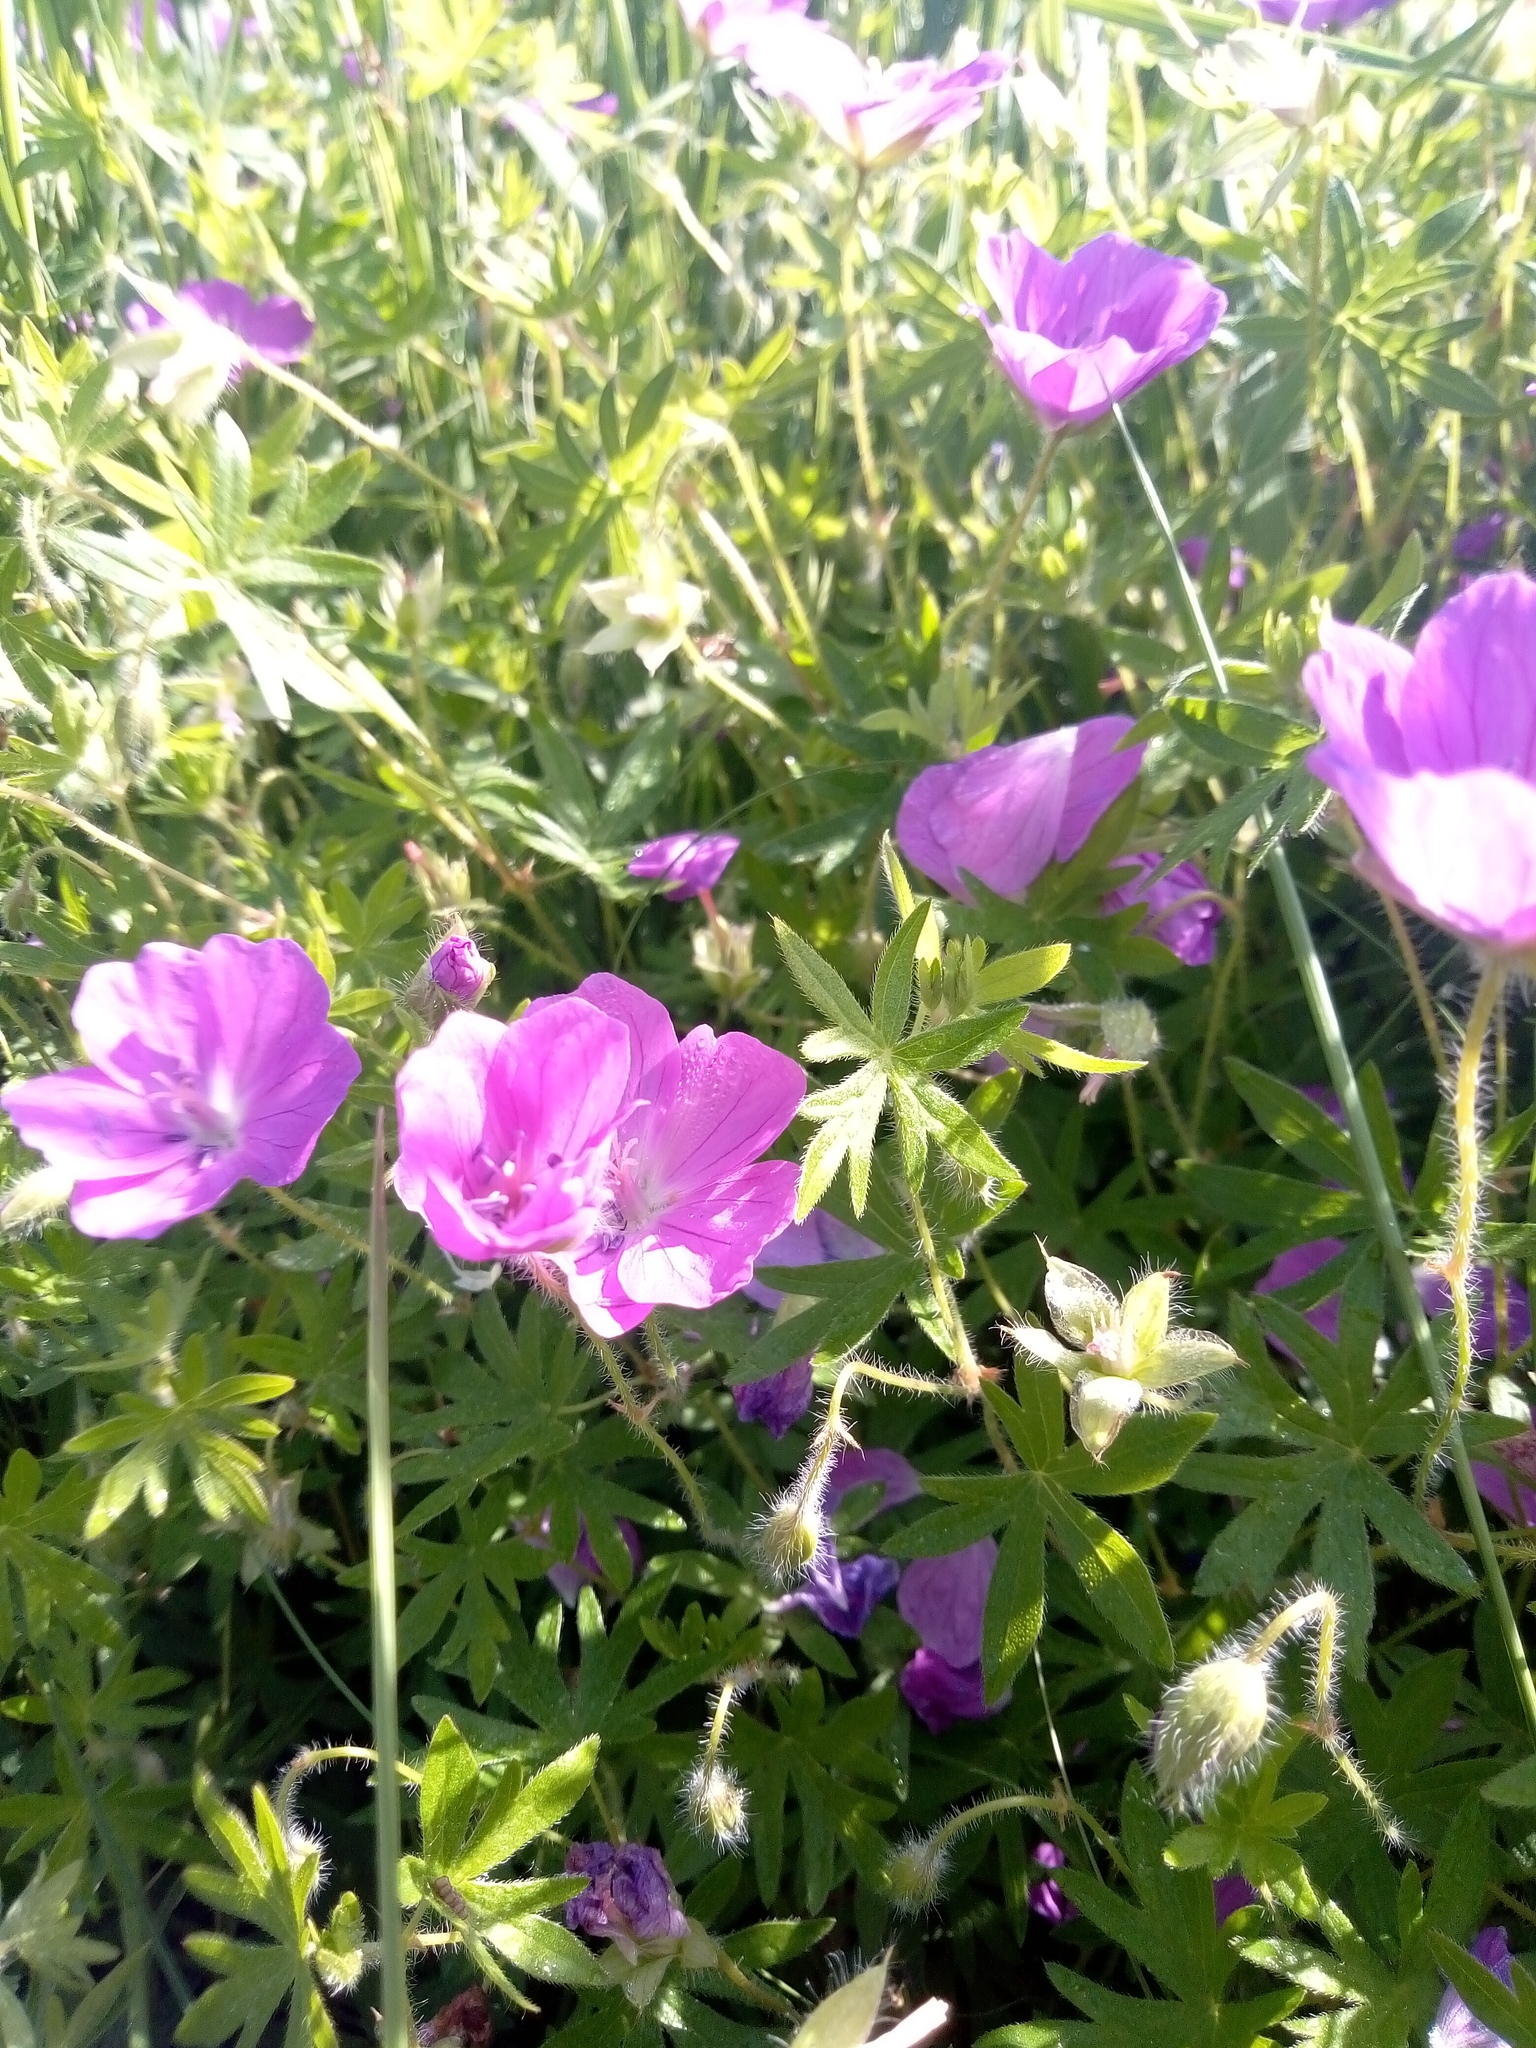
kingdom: Plantae
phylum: Tracheophyta
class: Magnoliopsida
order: Geraniales
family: Geraniaceae
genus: Geranium
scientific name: Geranium sanguineum
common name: Bloody crane's-bill
